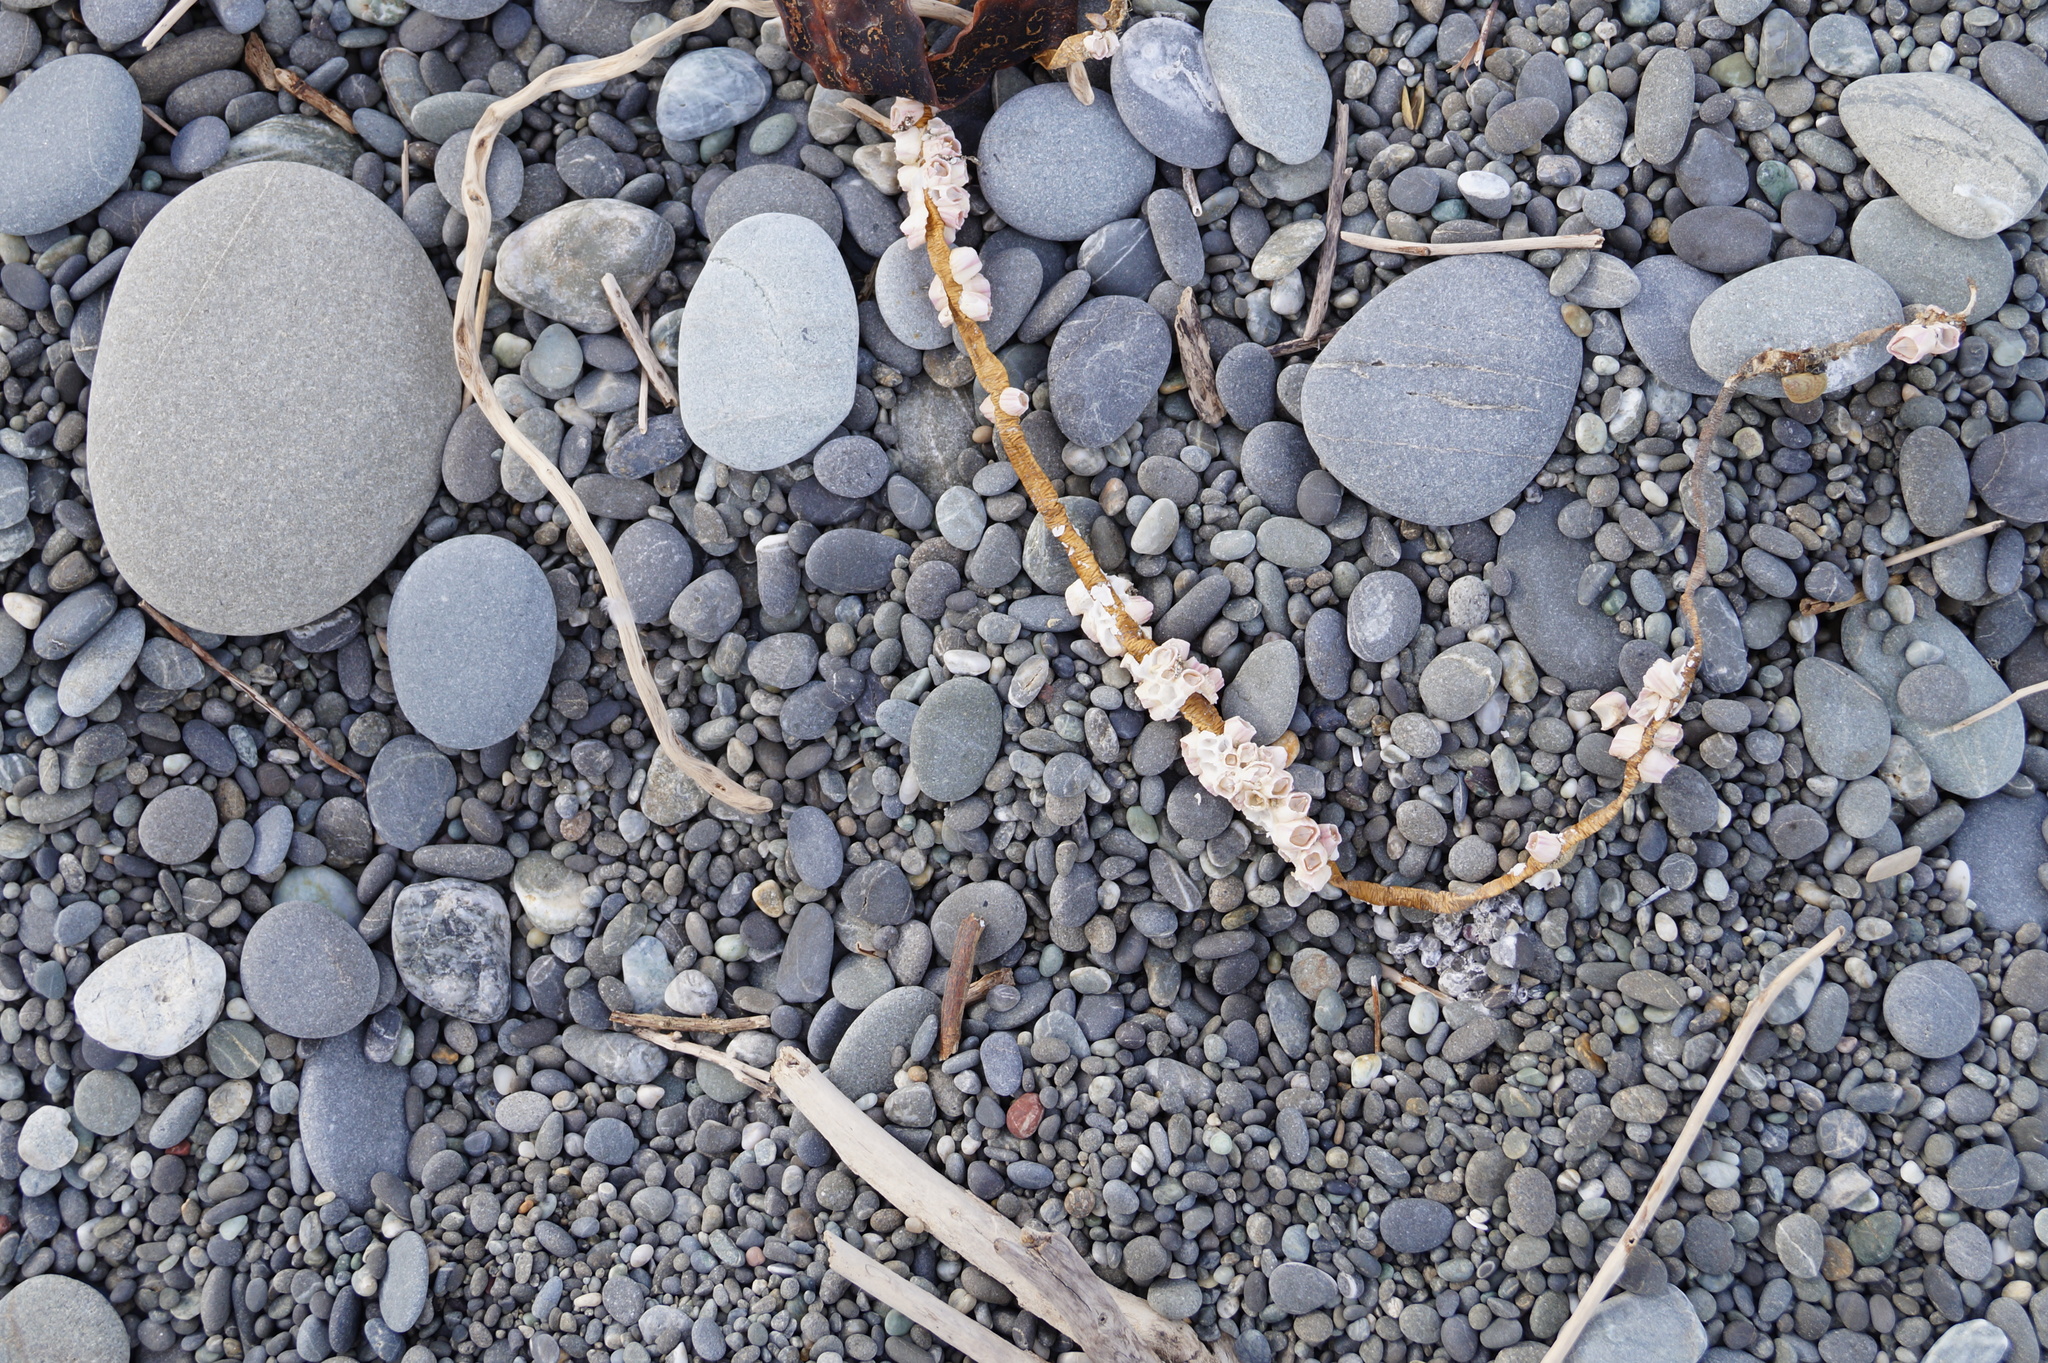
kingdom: Animalia
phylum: Arthropoda
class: Maxillopoda
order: Sessilia
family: Balanidae
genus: Notomegabalanus
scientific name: Notomegabalanus decorus
